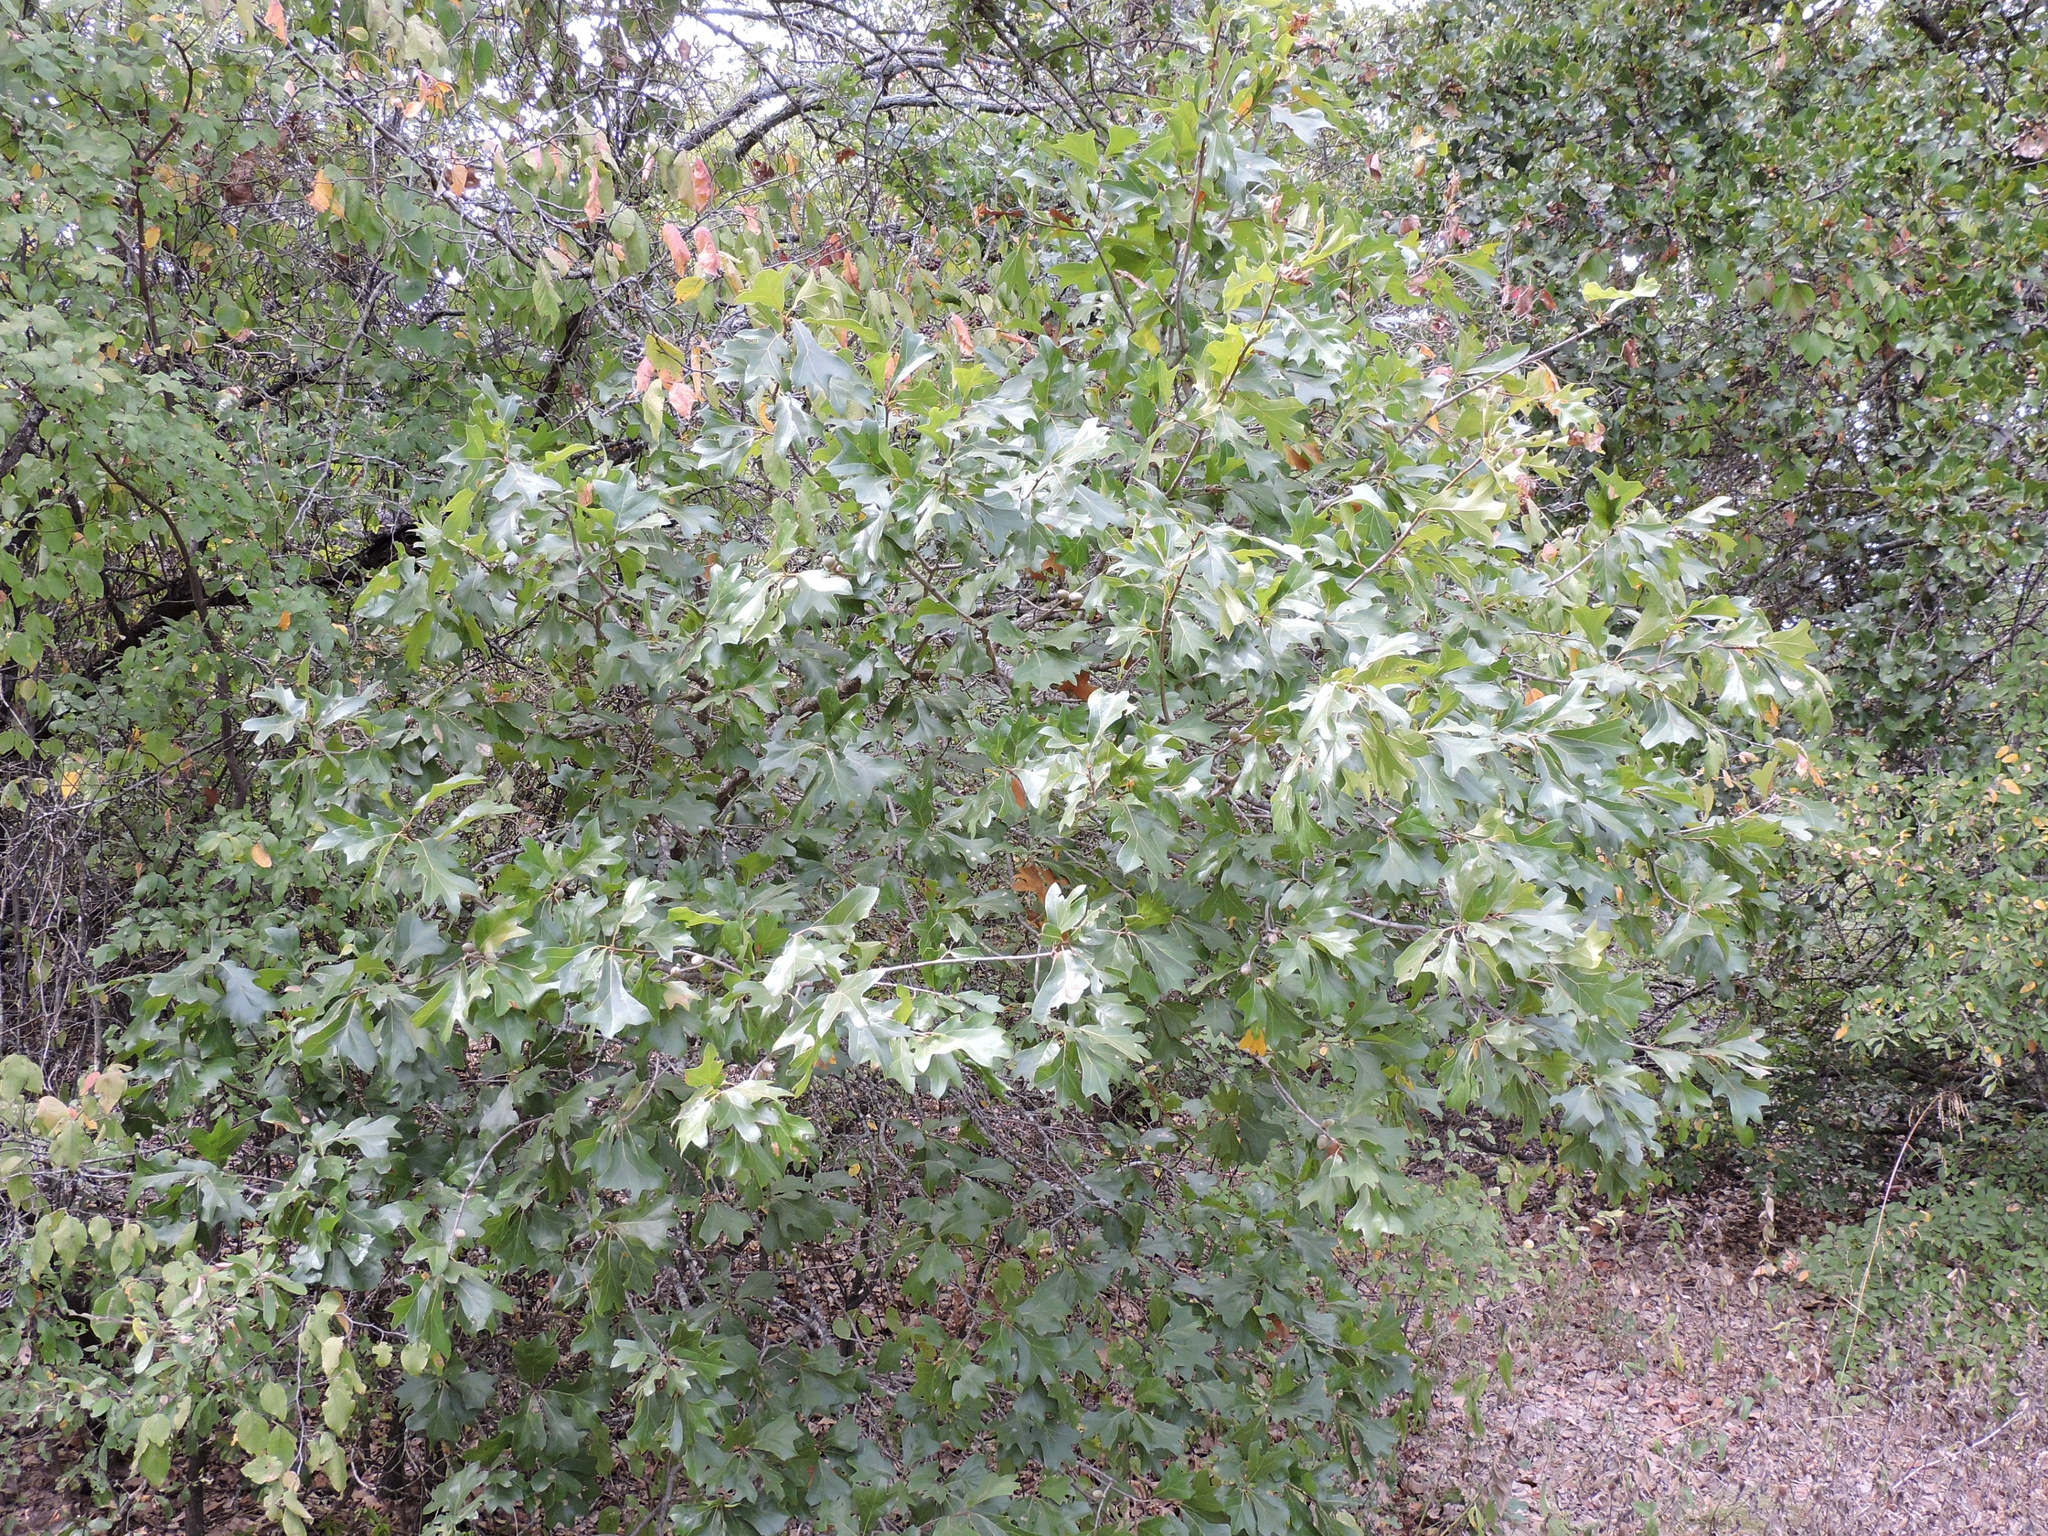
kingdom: Plantae
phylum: Tracheophyta
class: Magnoliopsida
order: Fagales
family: Fagaceae
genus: Quercus
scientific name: Quercus marilandica
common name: Blackjack oak
